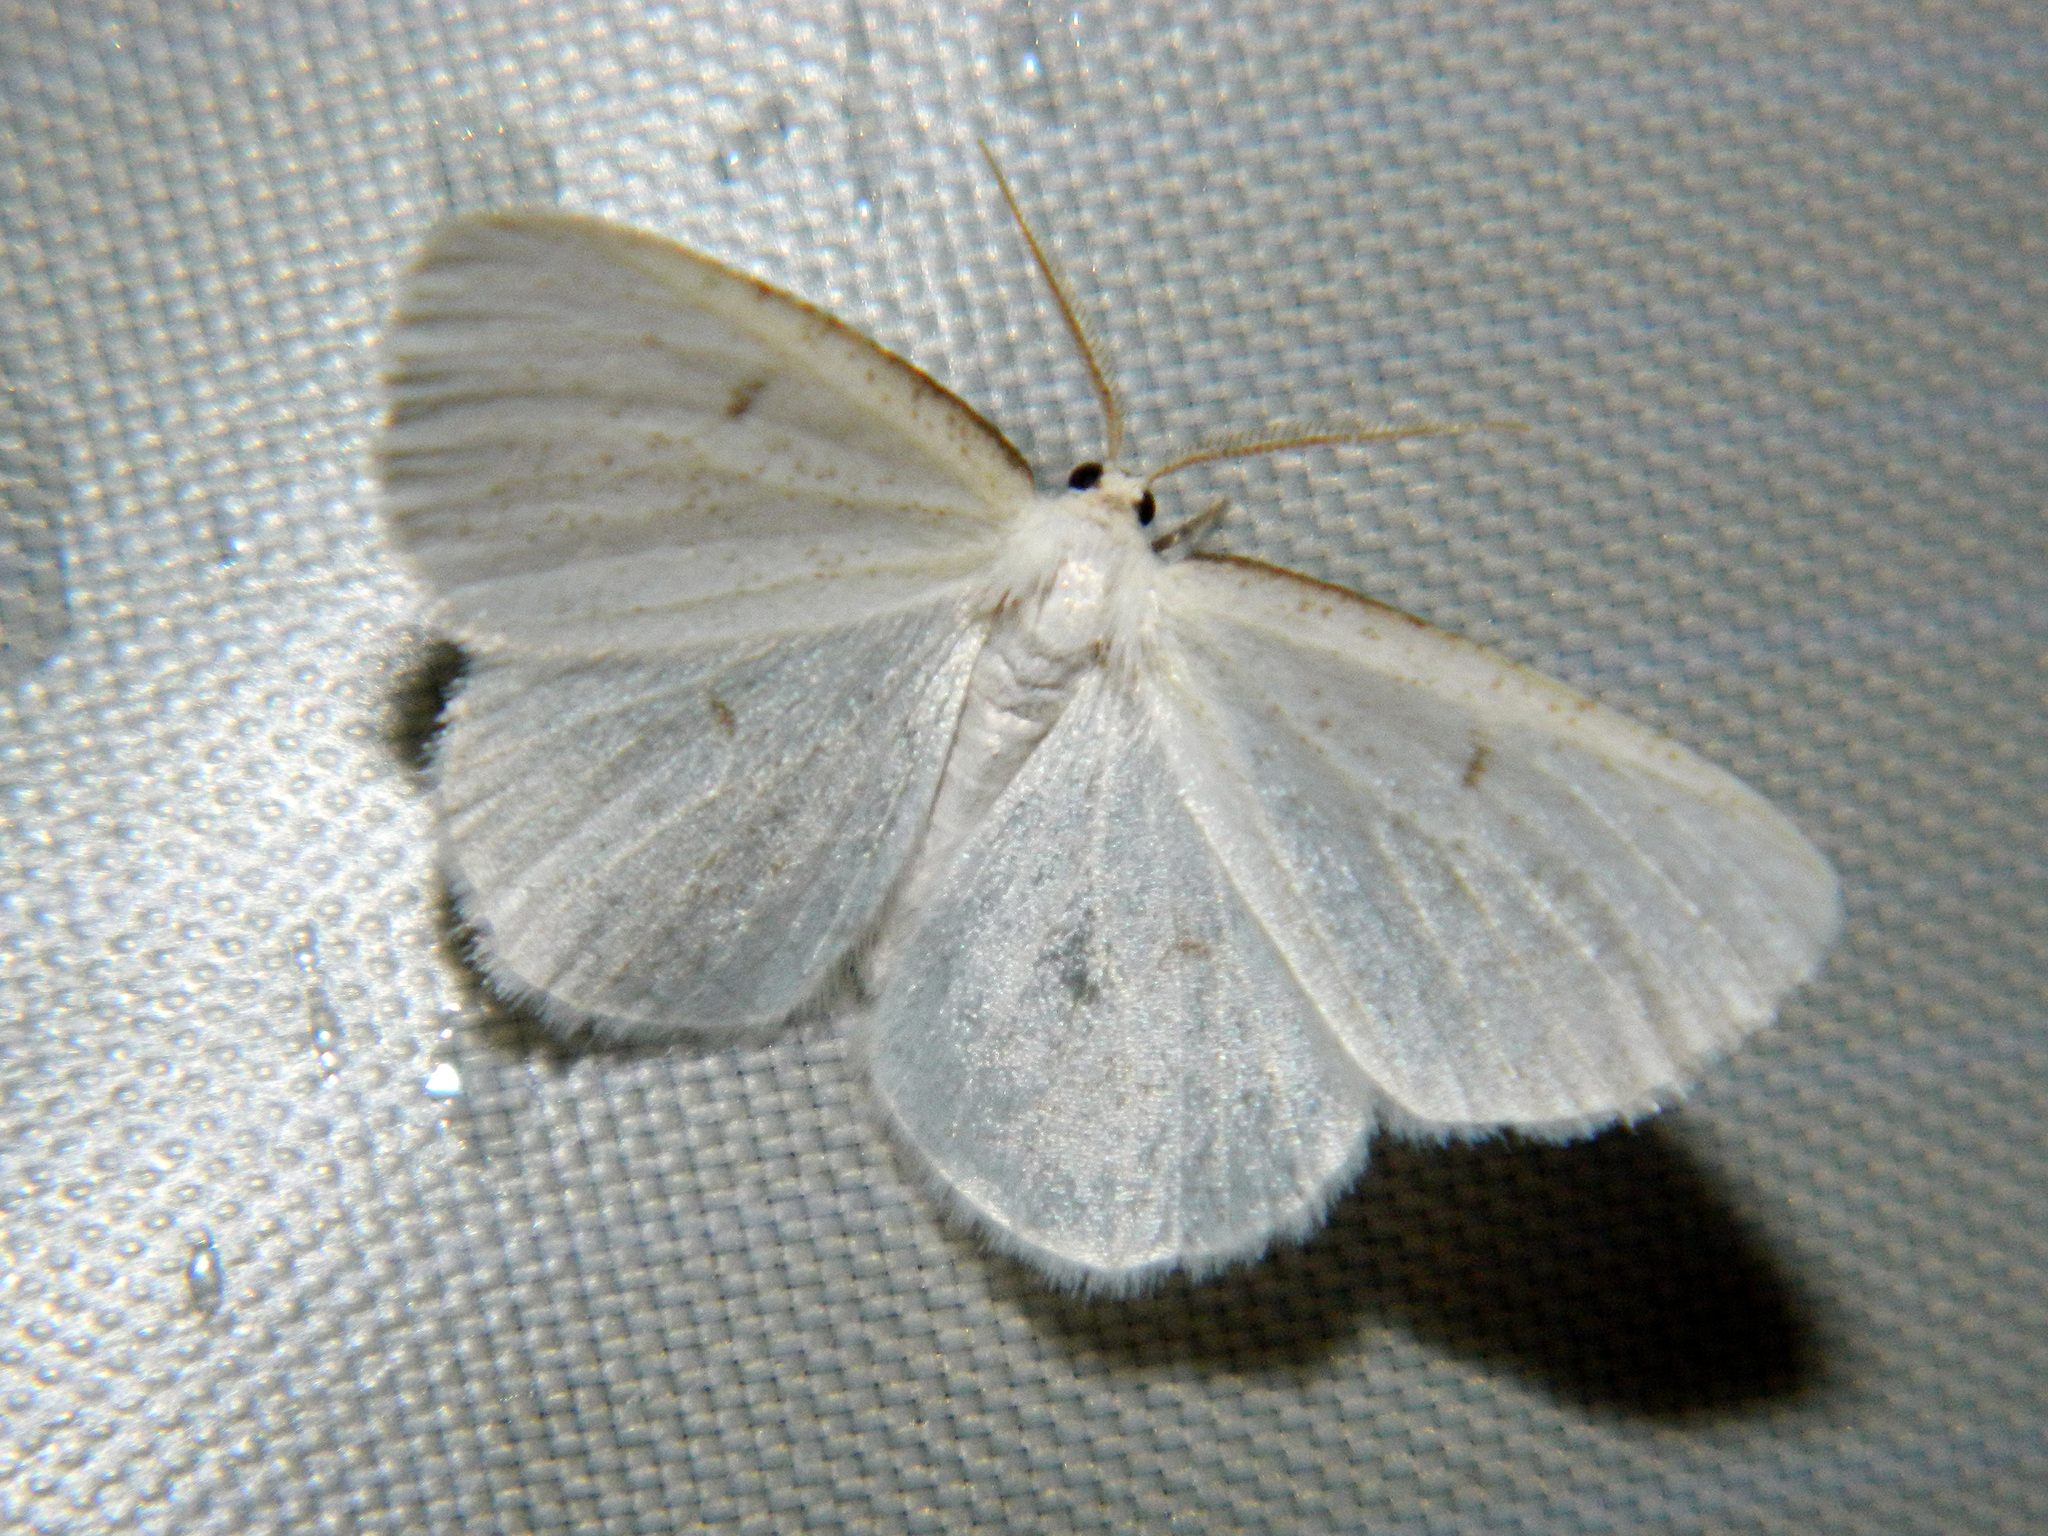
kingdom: Animalia
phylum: Arthropoda
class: Insecta
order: Lepidoptera
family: Geometridae
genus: Protitame
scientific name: Protitame virginalis
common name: Virgin moth
